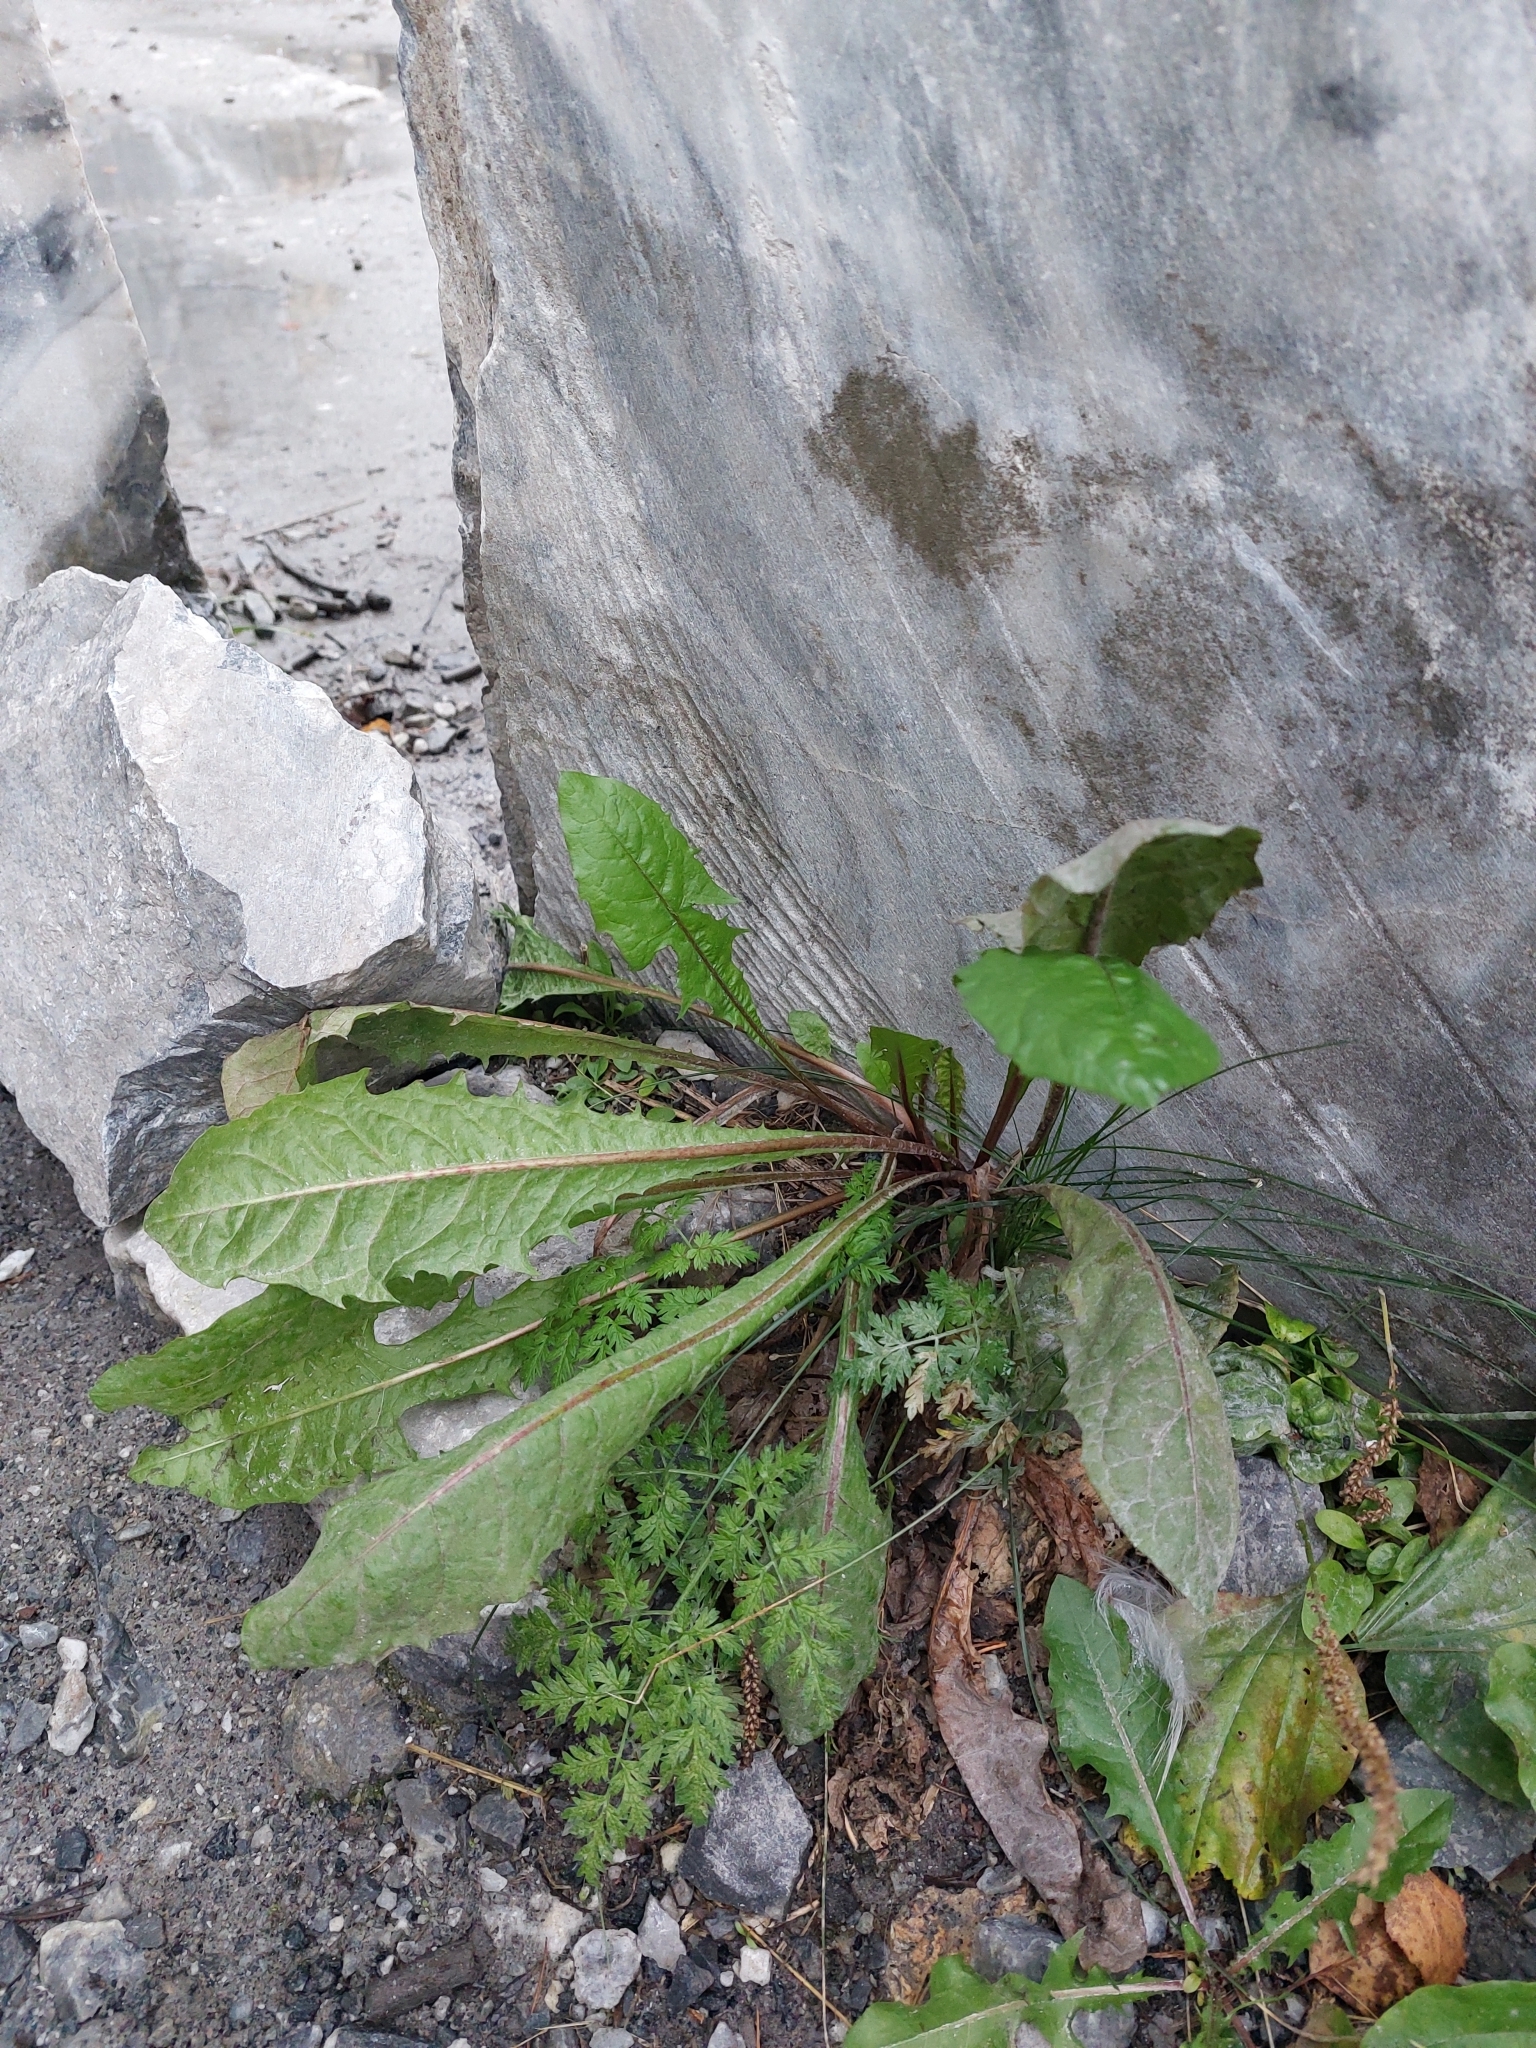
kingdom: Plantae
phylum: Tracheophyta
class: Magnoliopsida
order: Asterales
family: Asteraceae
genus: Taraxacum
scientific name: Taraxacum officinale
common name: Common dandelion
